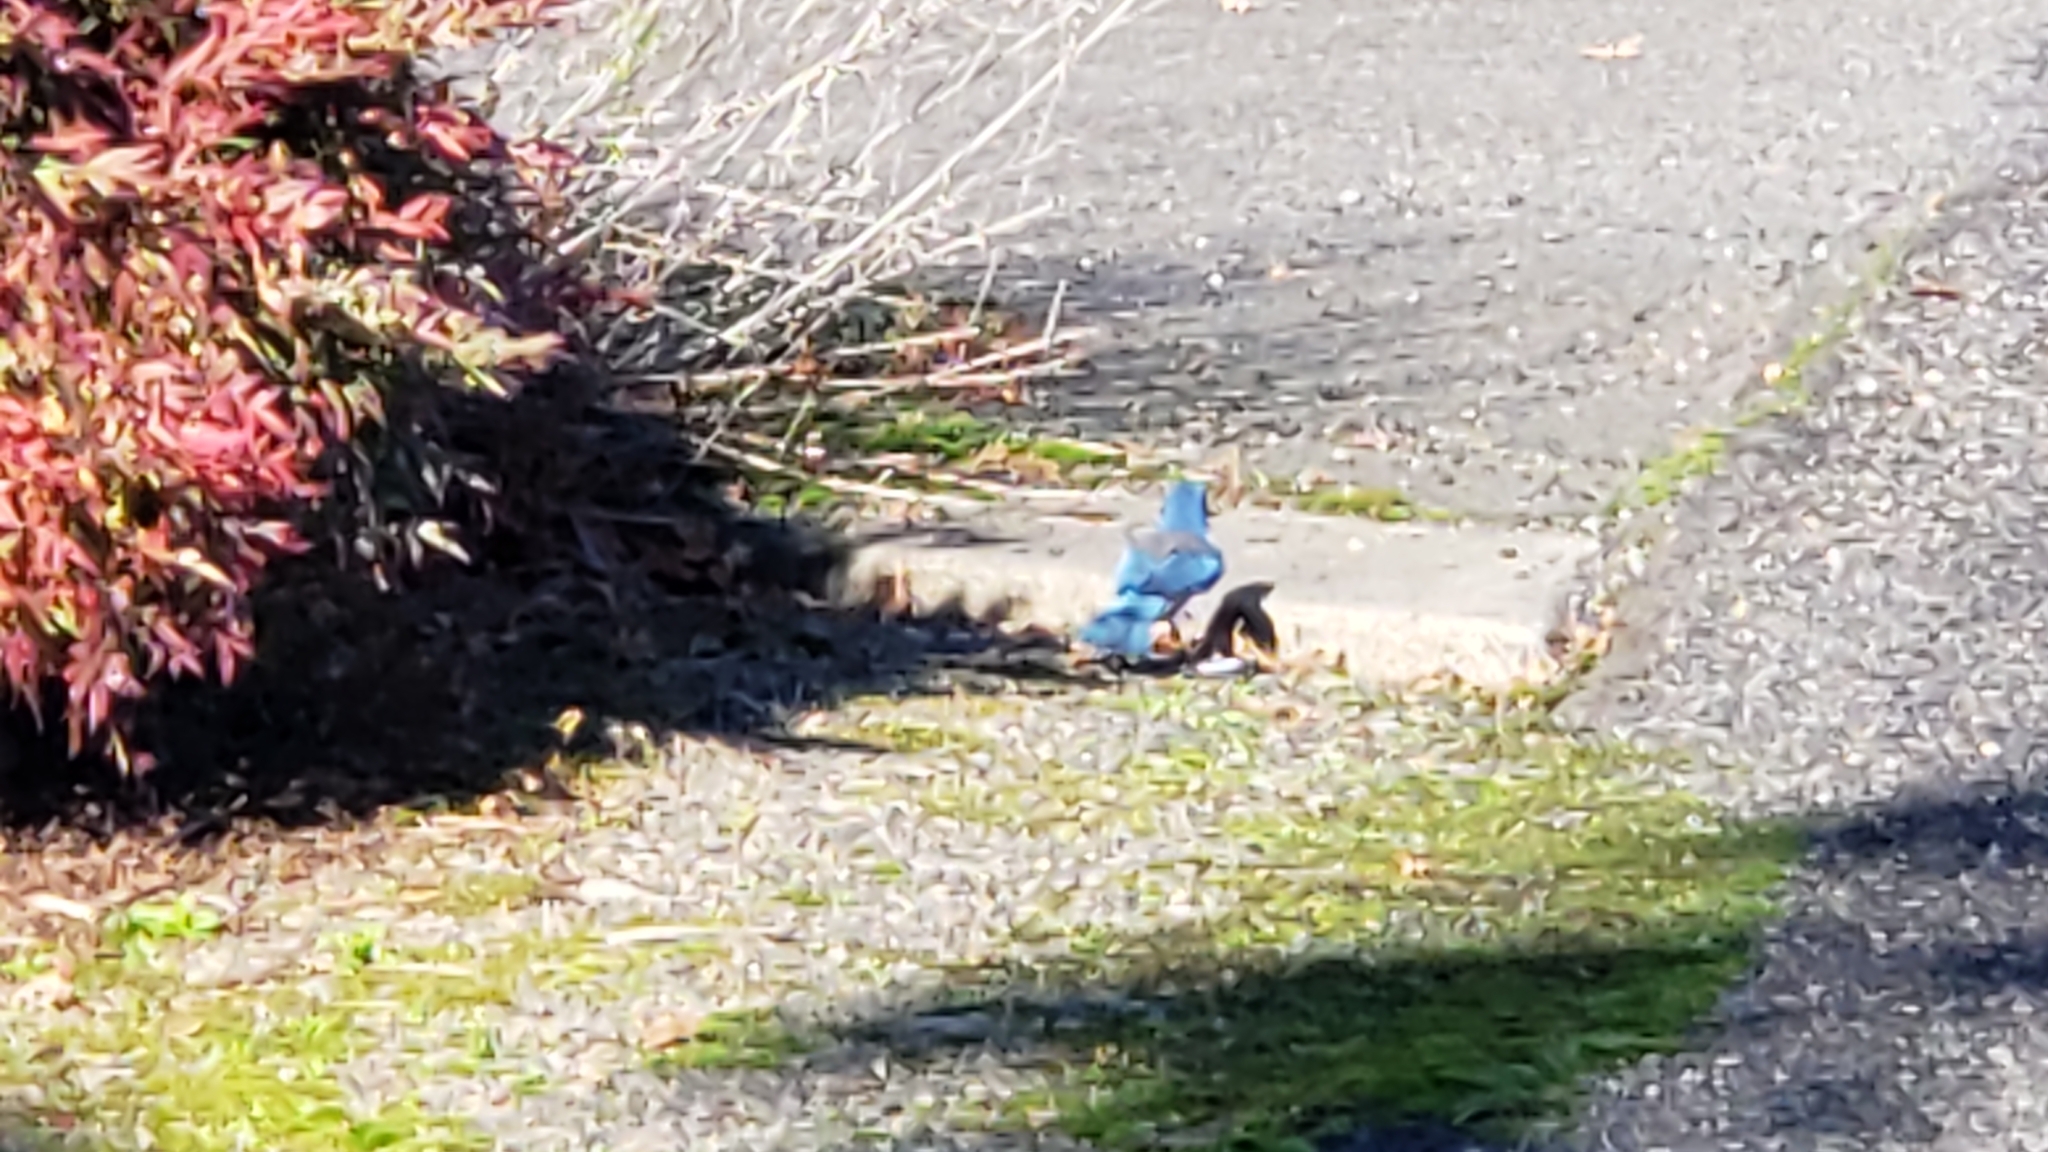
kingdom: Animalia
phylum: Chordata
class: Aves
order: Passeriformes
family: Corvidae
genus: Aphelocoma
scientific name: Aphelocoma californica
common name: California scrub-jay
